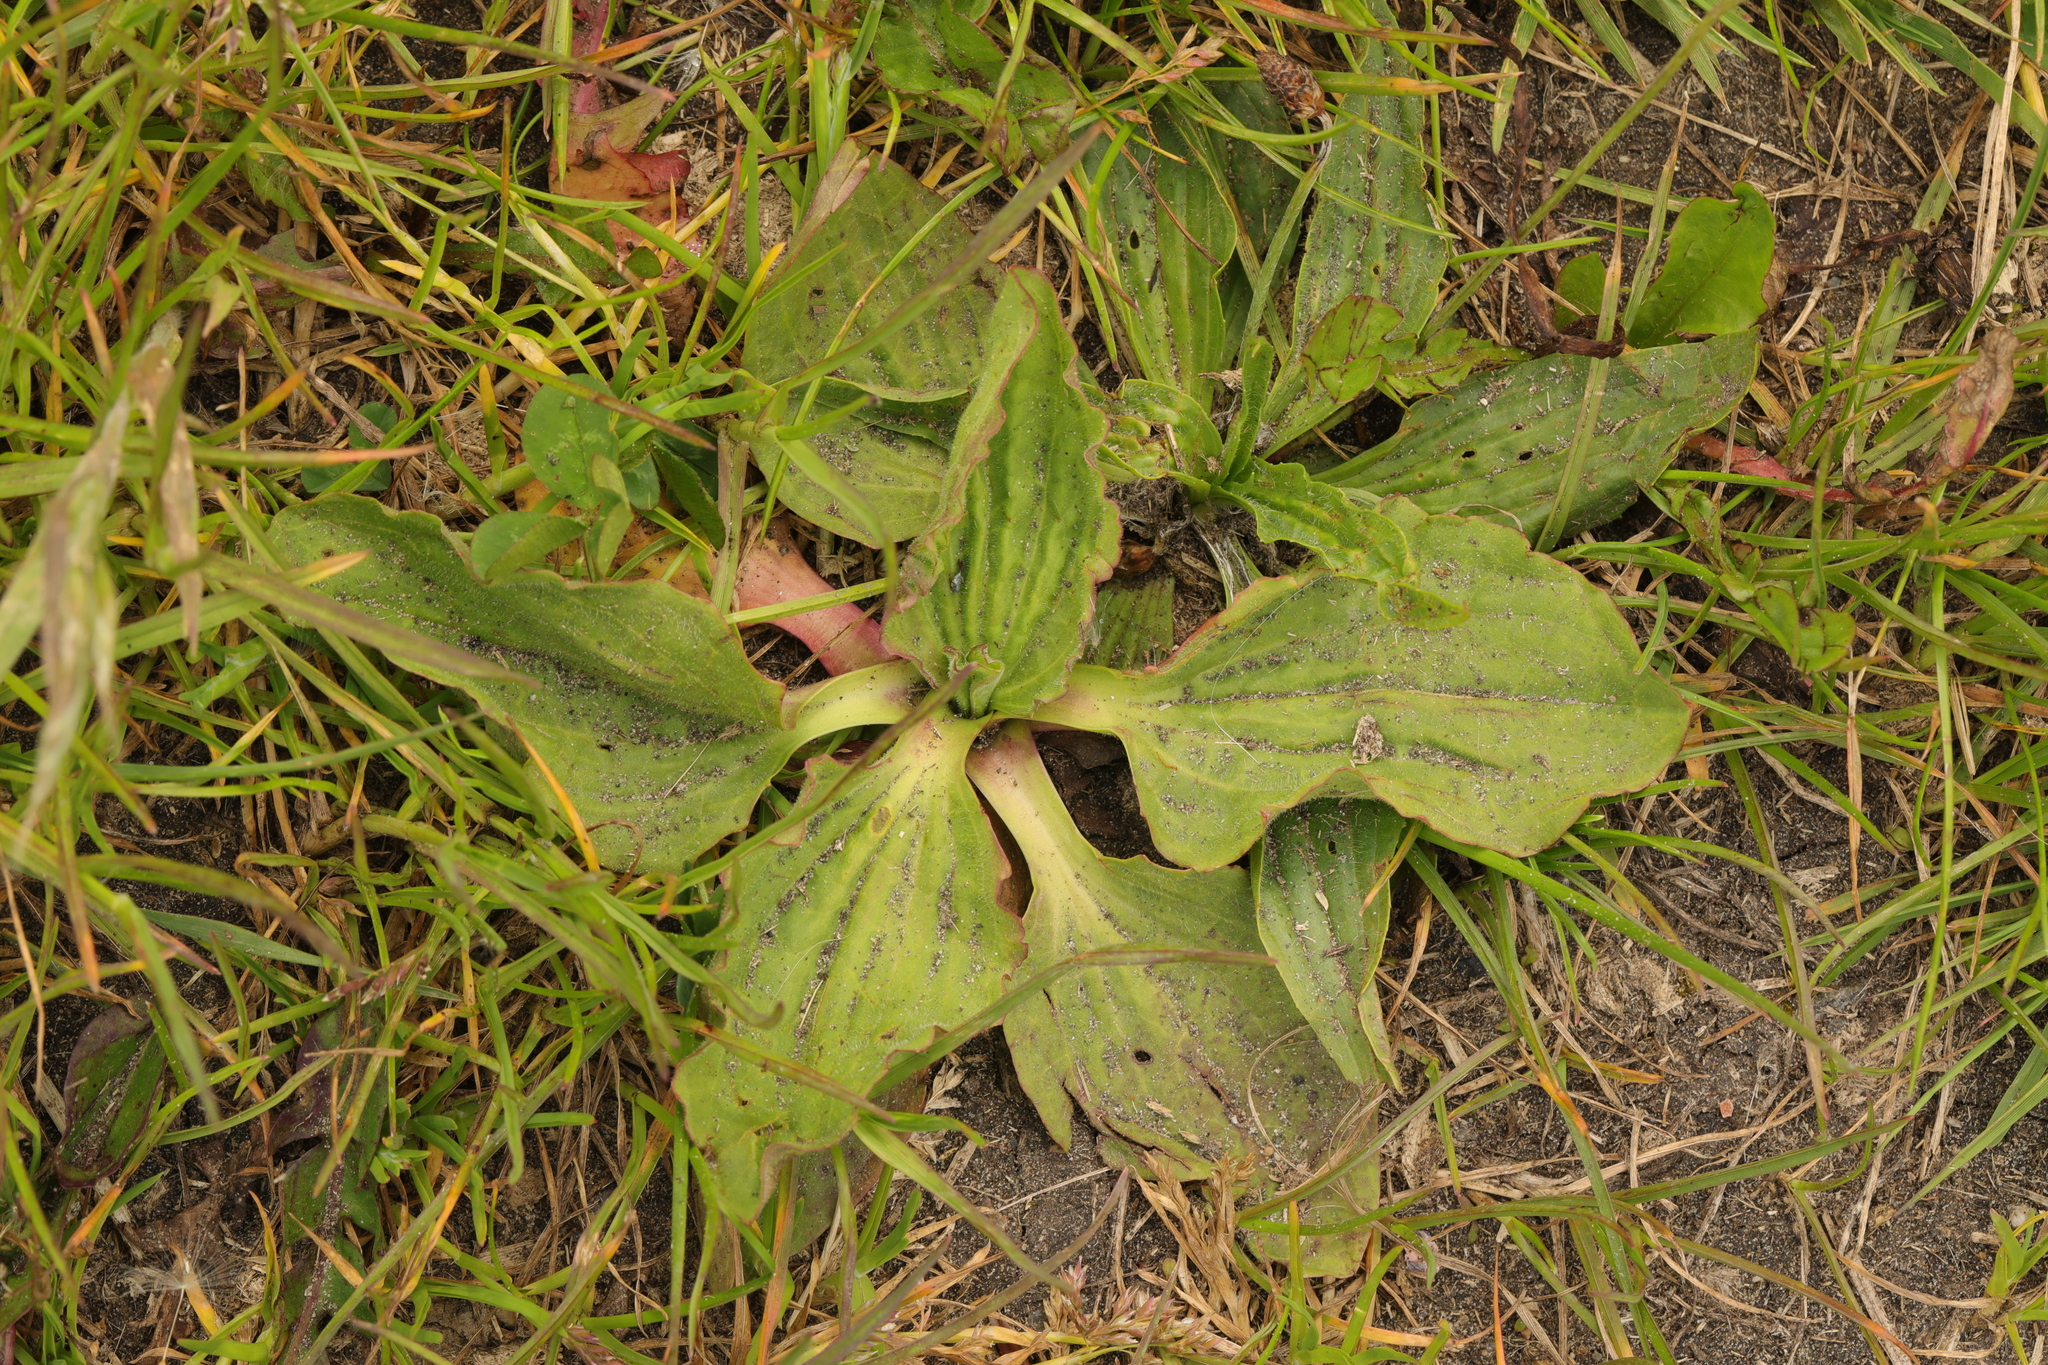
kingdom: Plantae
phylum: Tracheophyta
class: Magnoliopsida
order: Lamiales
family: Plantaginaceae
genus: Plantago
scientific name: Plantago major
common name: Common plantain
